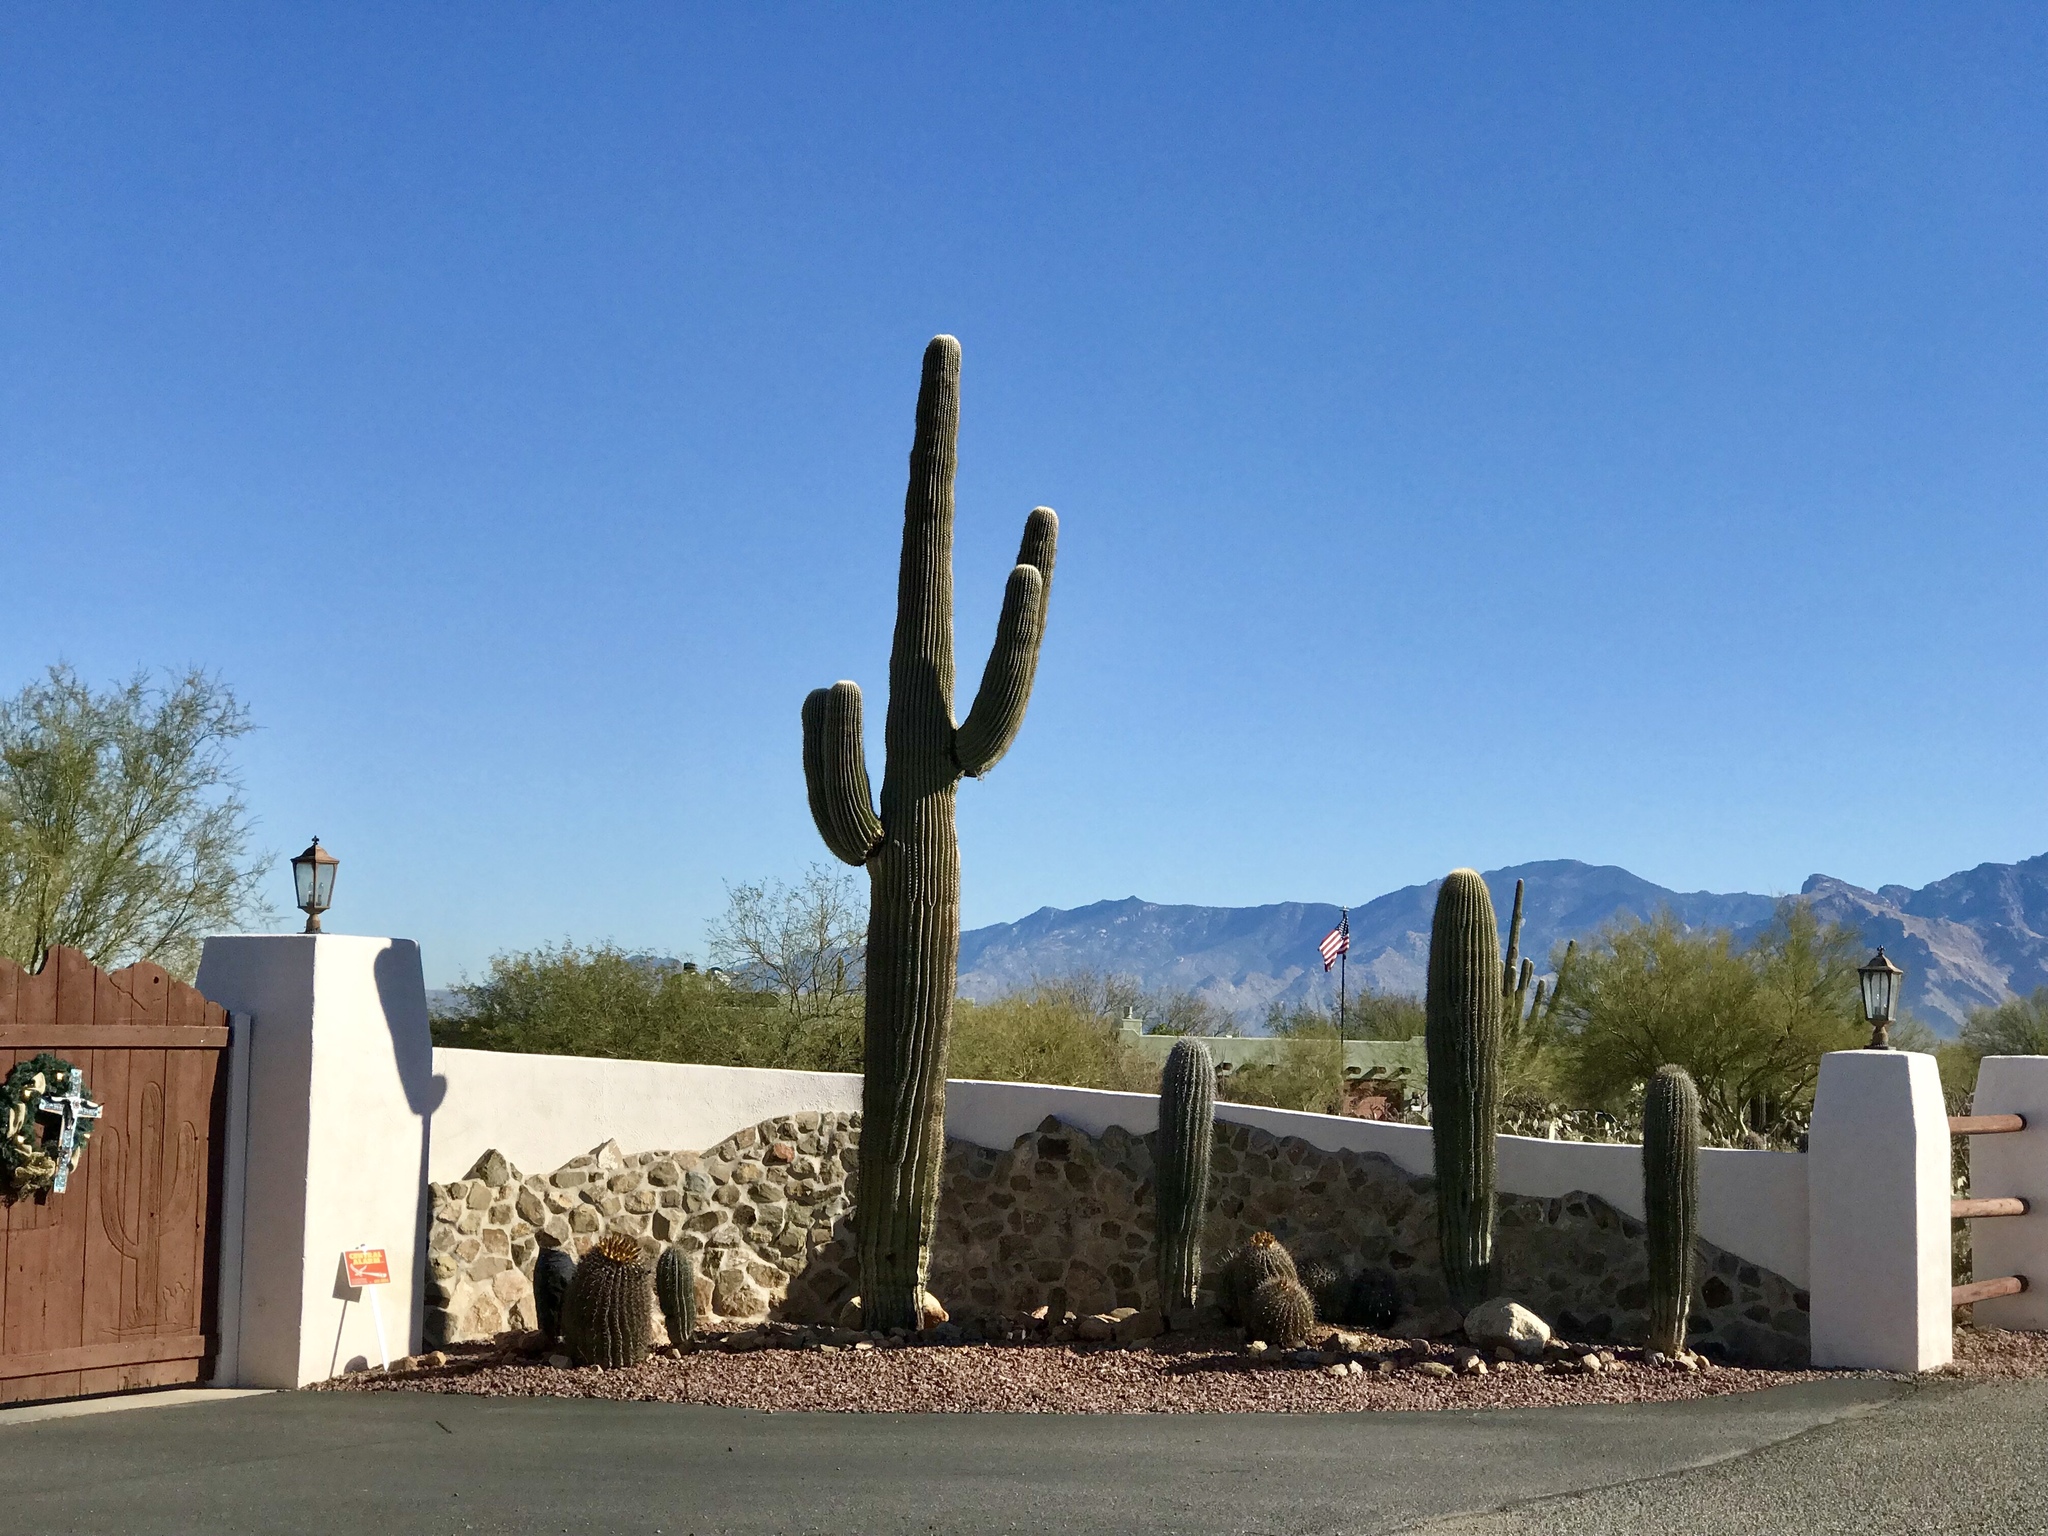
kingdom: Plantae
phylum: Tracheophyta
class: Magnoliopsida
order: Caryophyllales
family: Cactaceae
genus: Carnegiea
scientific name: Carnegiea gigantea
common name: Saguaro
